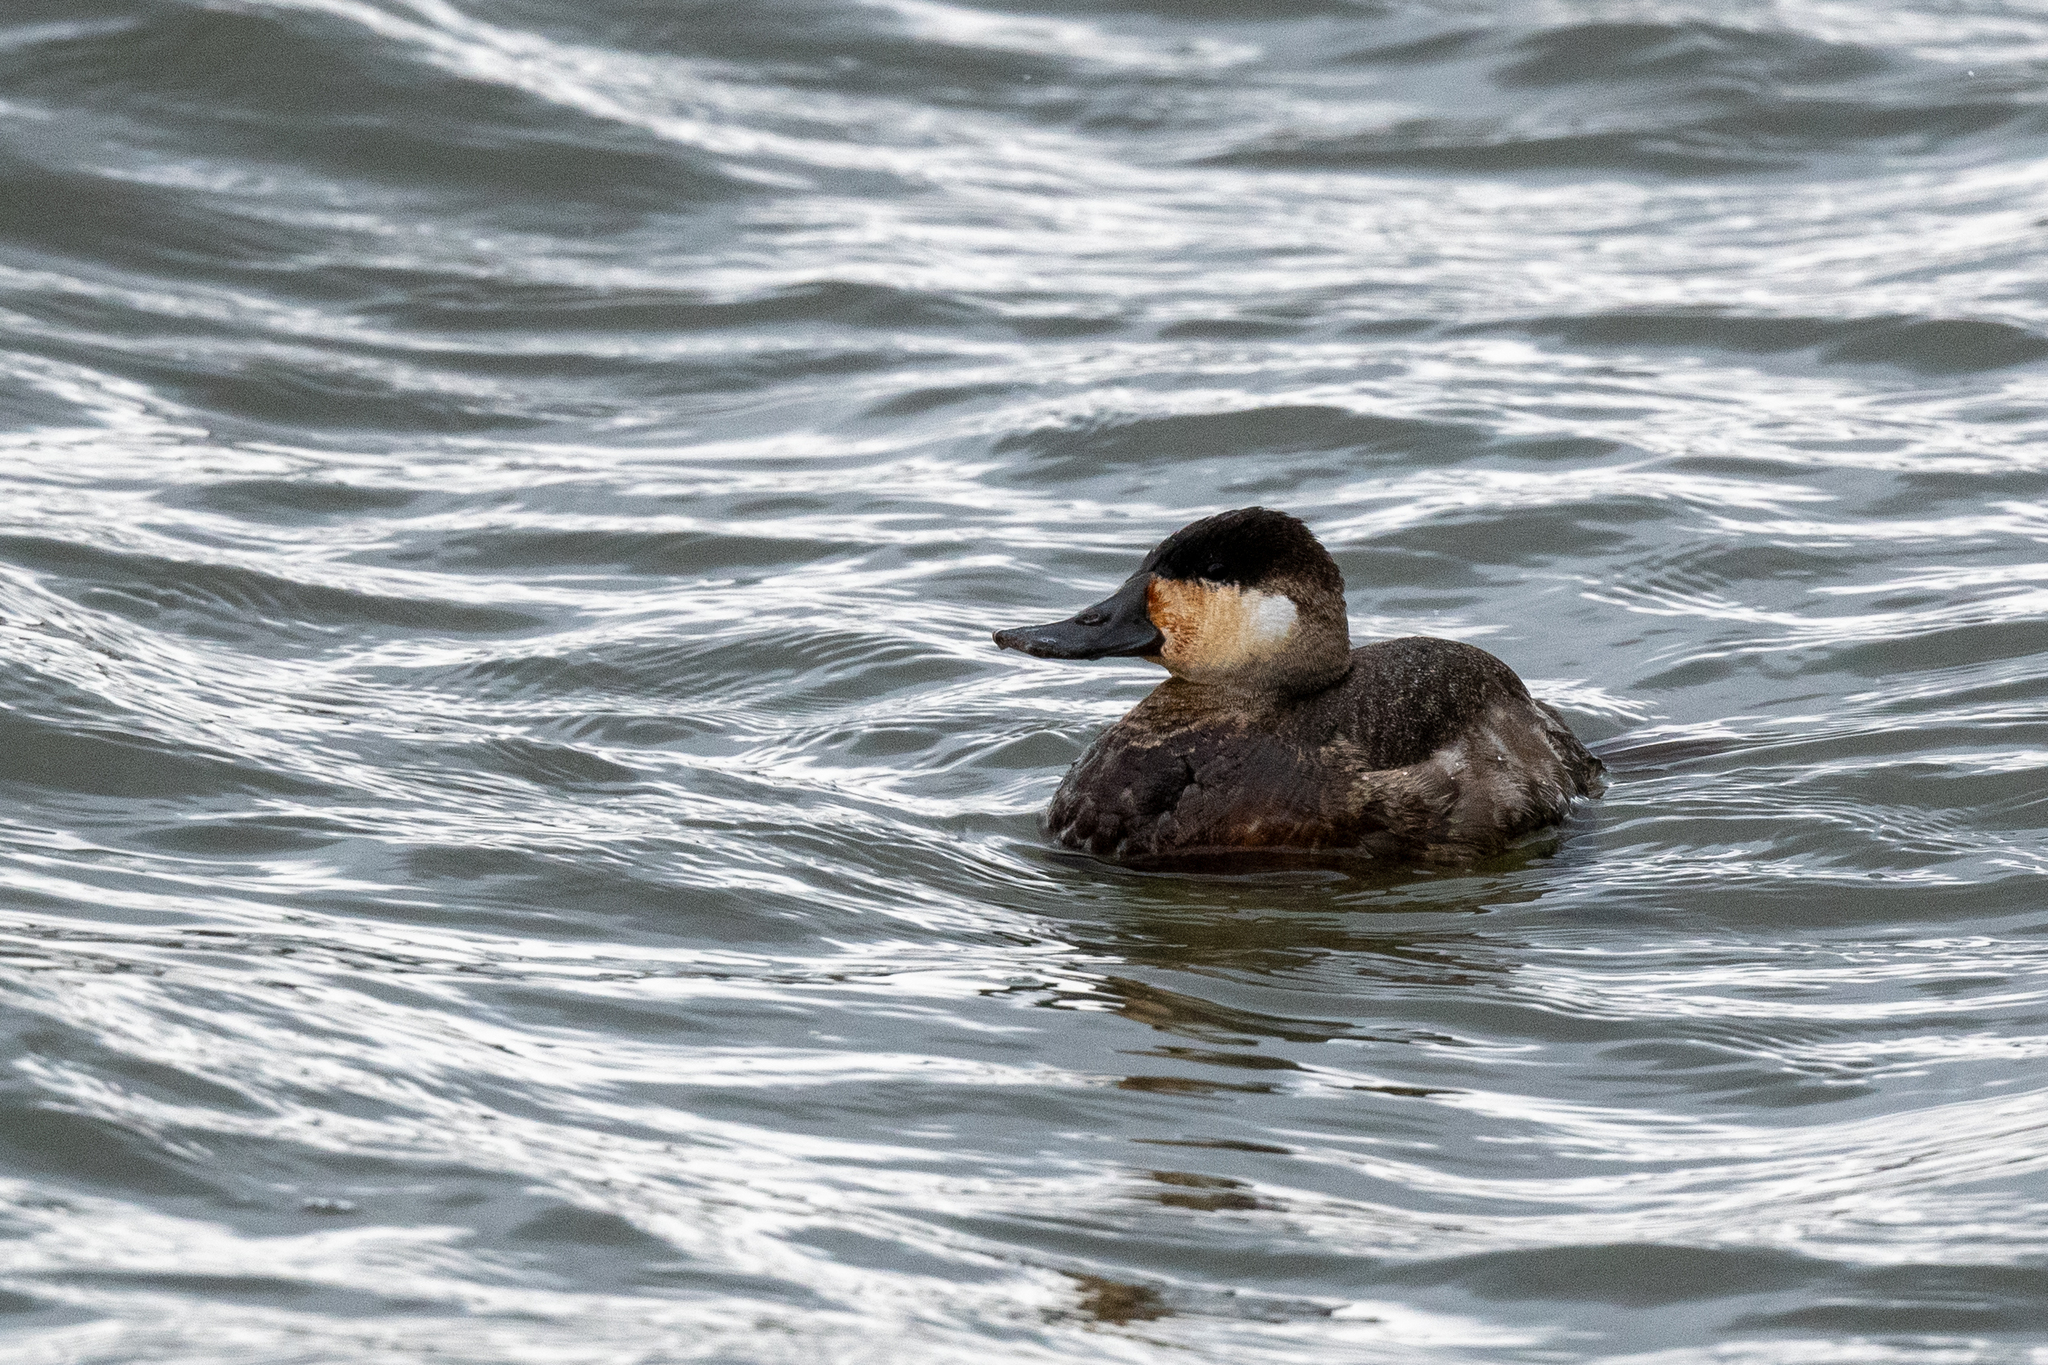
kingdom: Animalia
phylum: Chordata
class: Aves
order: Anseriformes
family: Anatidae
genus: Oxyura
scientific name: Oxyura jamaicensis
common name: Ruddy duck
